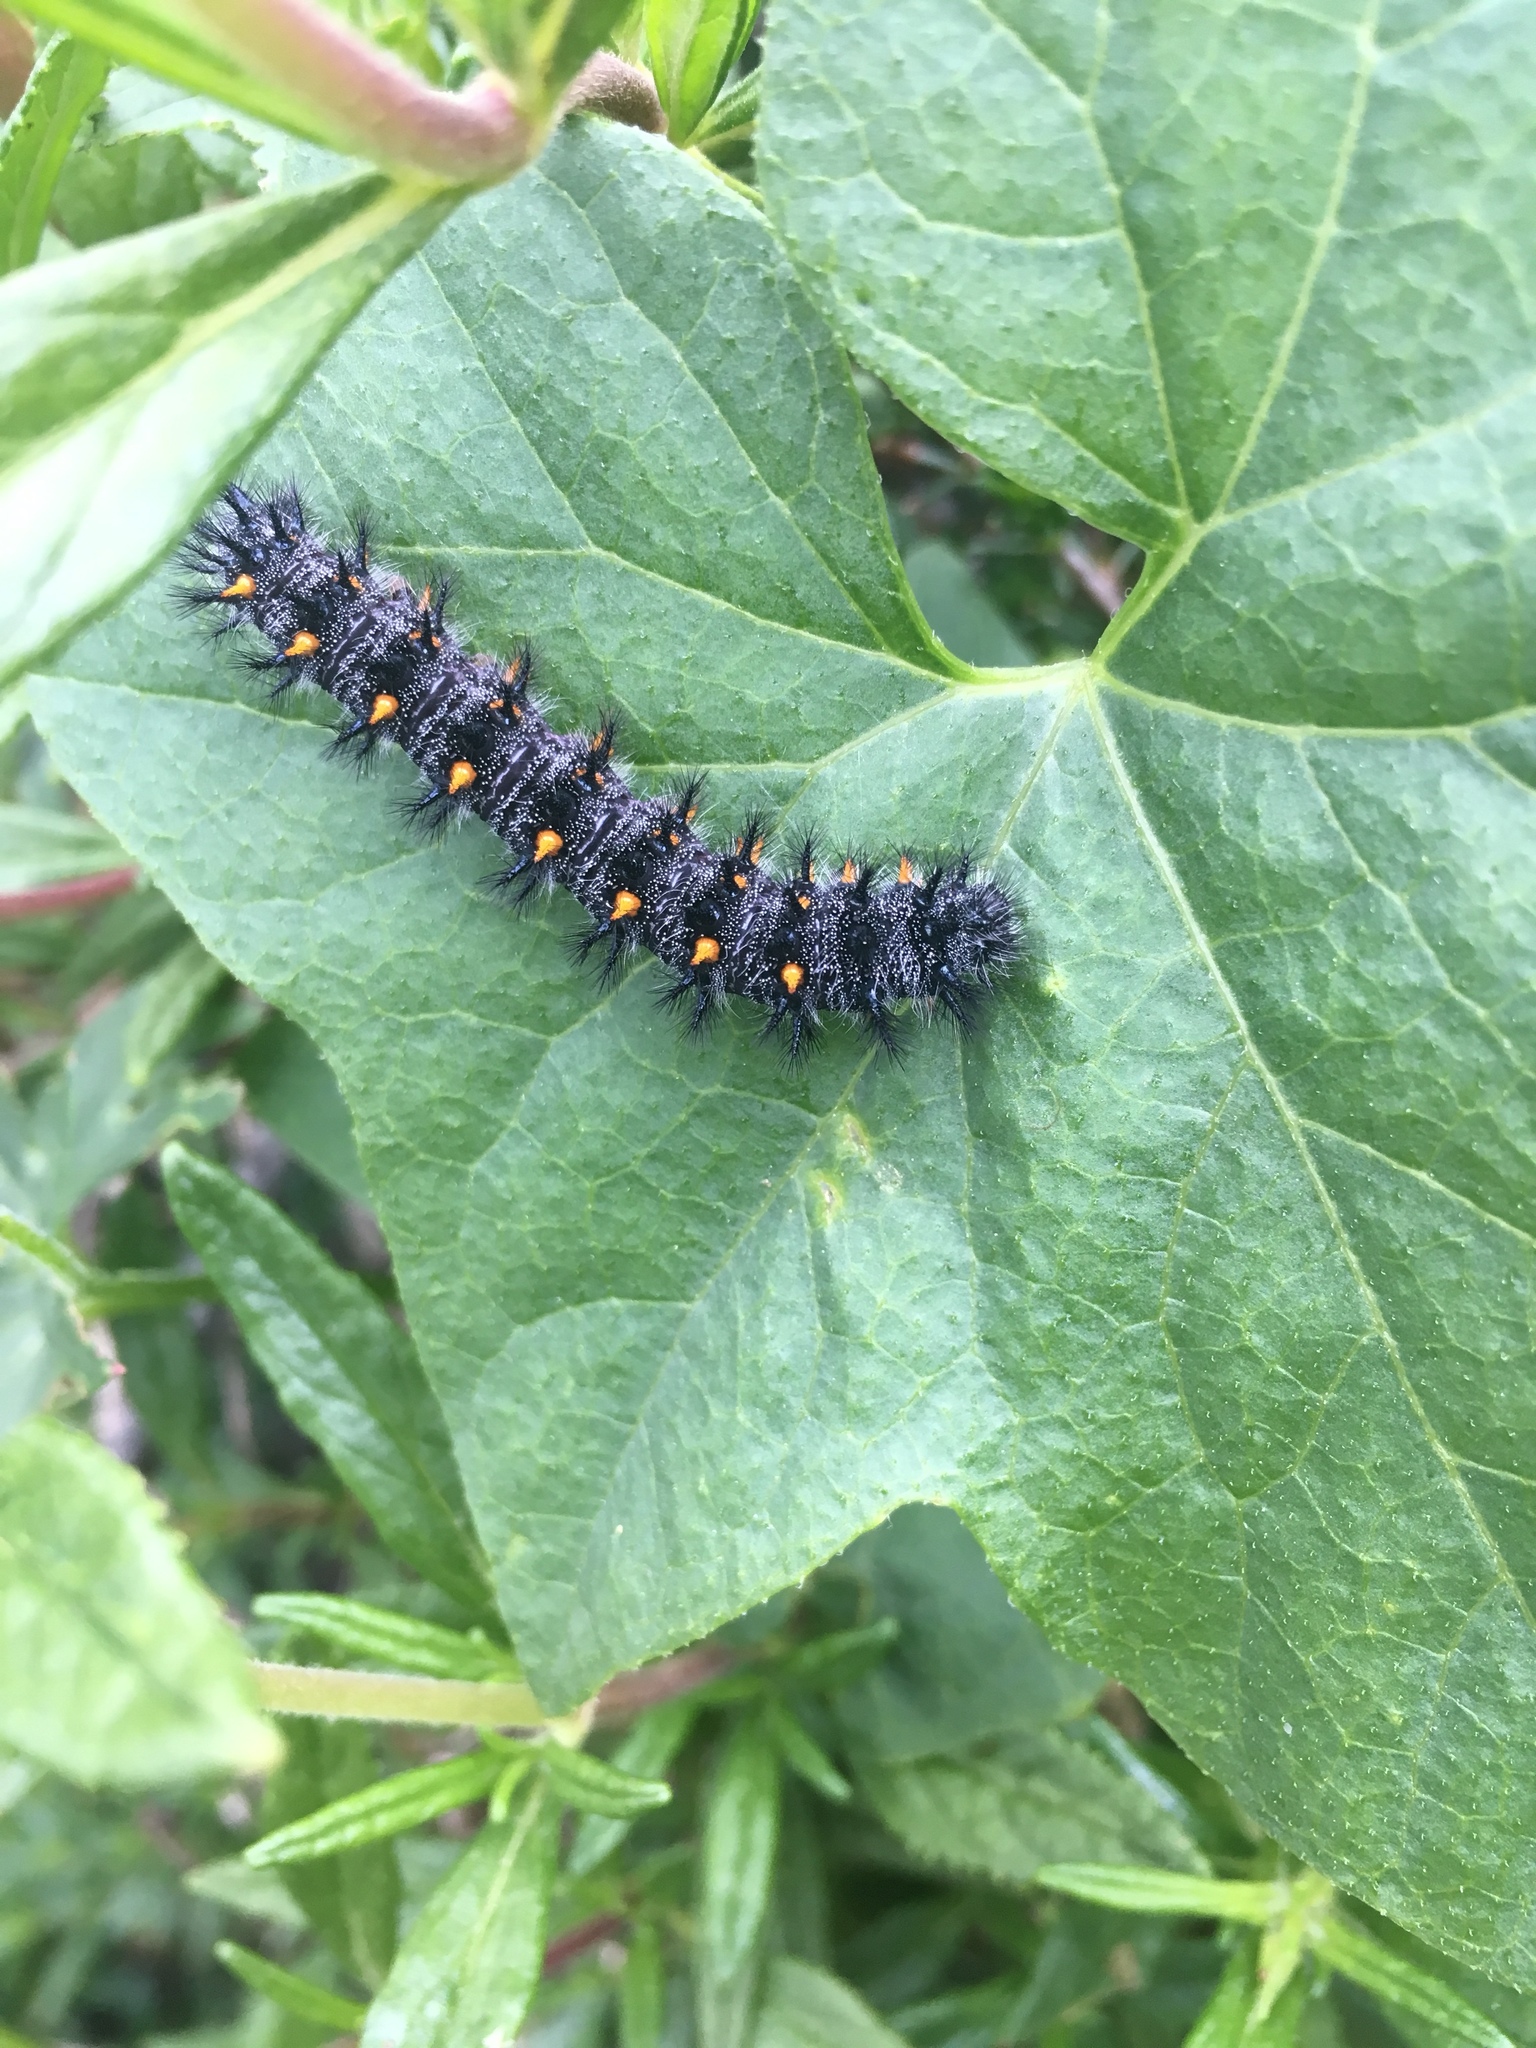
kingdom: Animalia
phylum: Arthropoda
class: Insecta
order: Lepidoptera
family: Nymphalidae
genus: Occidryas
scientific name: Occidryas chalcedona
